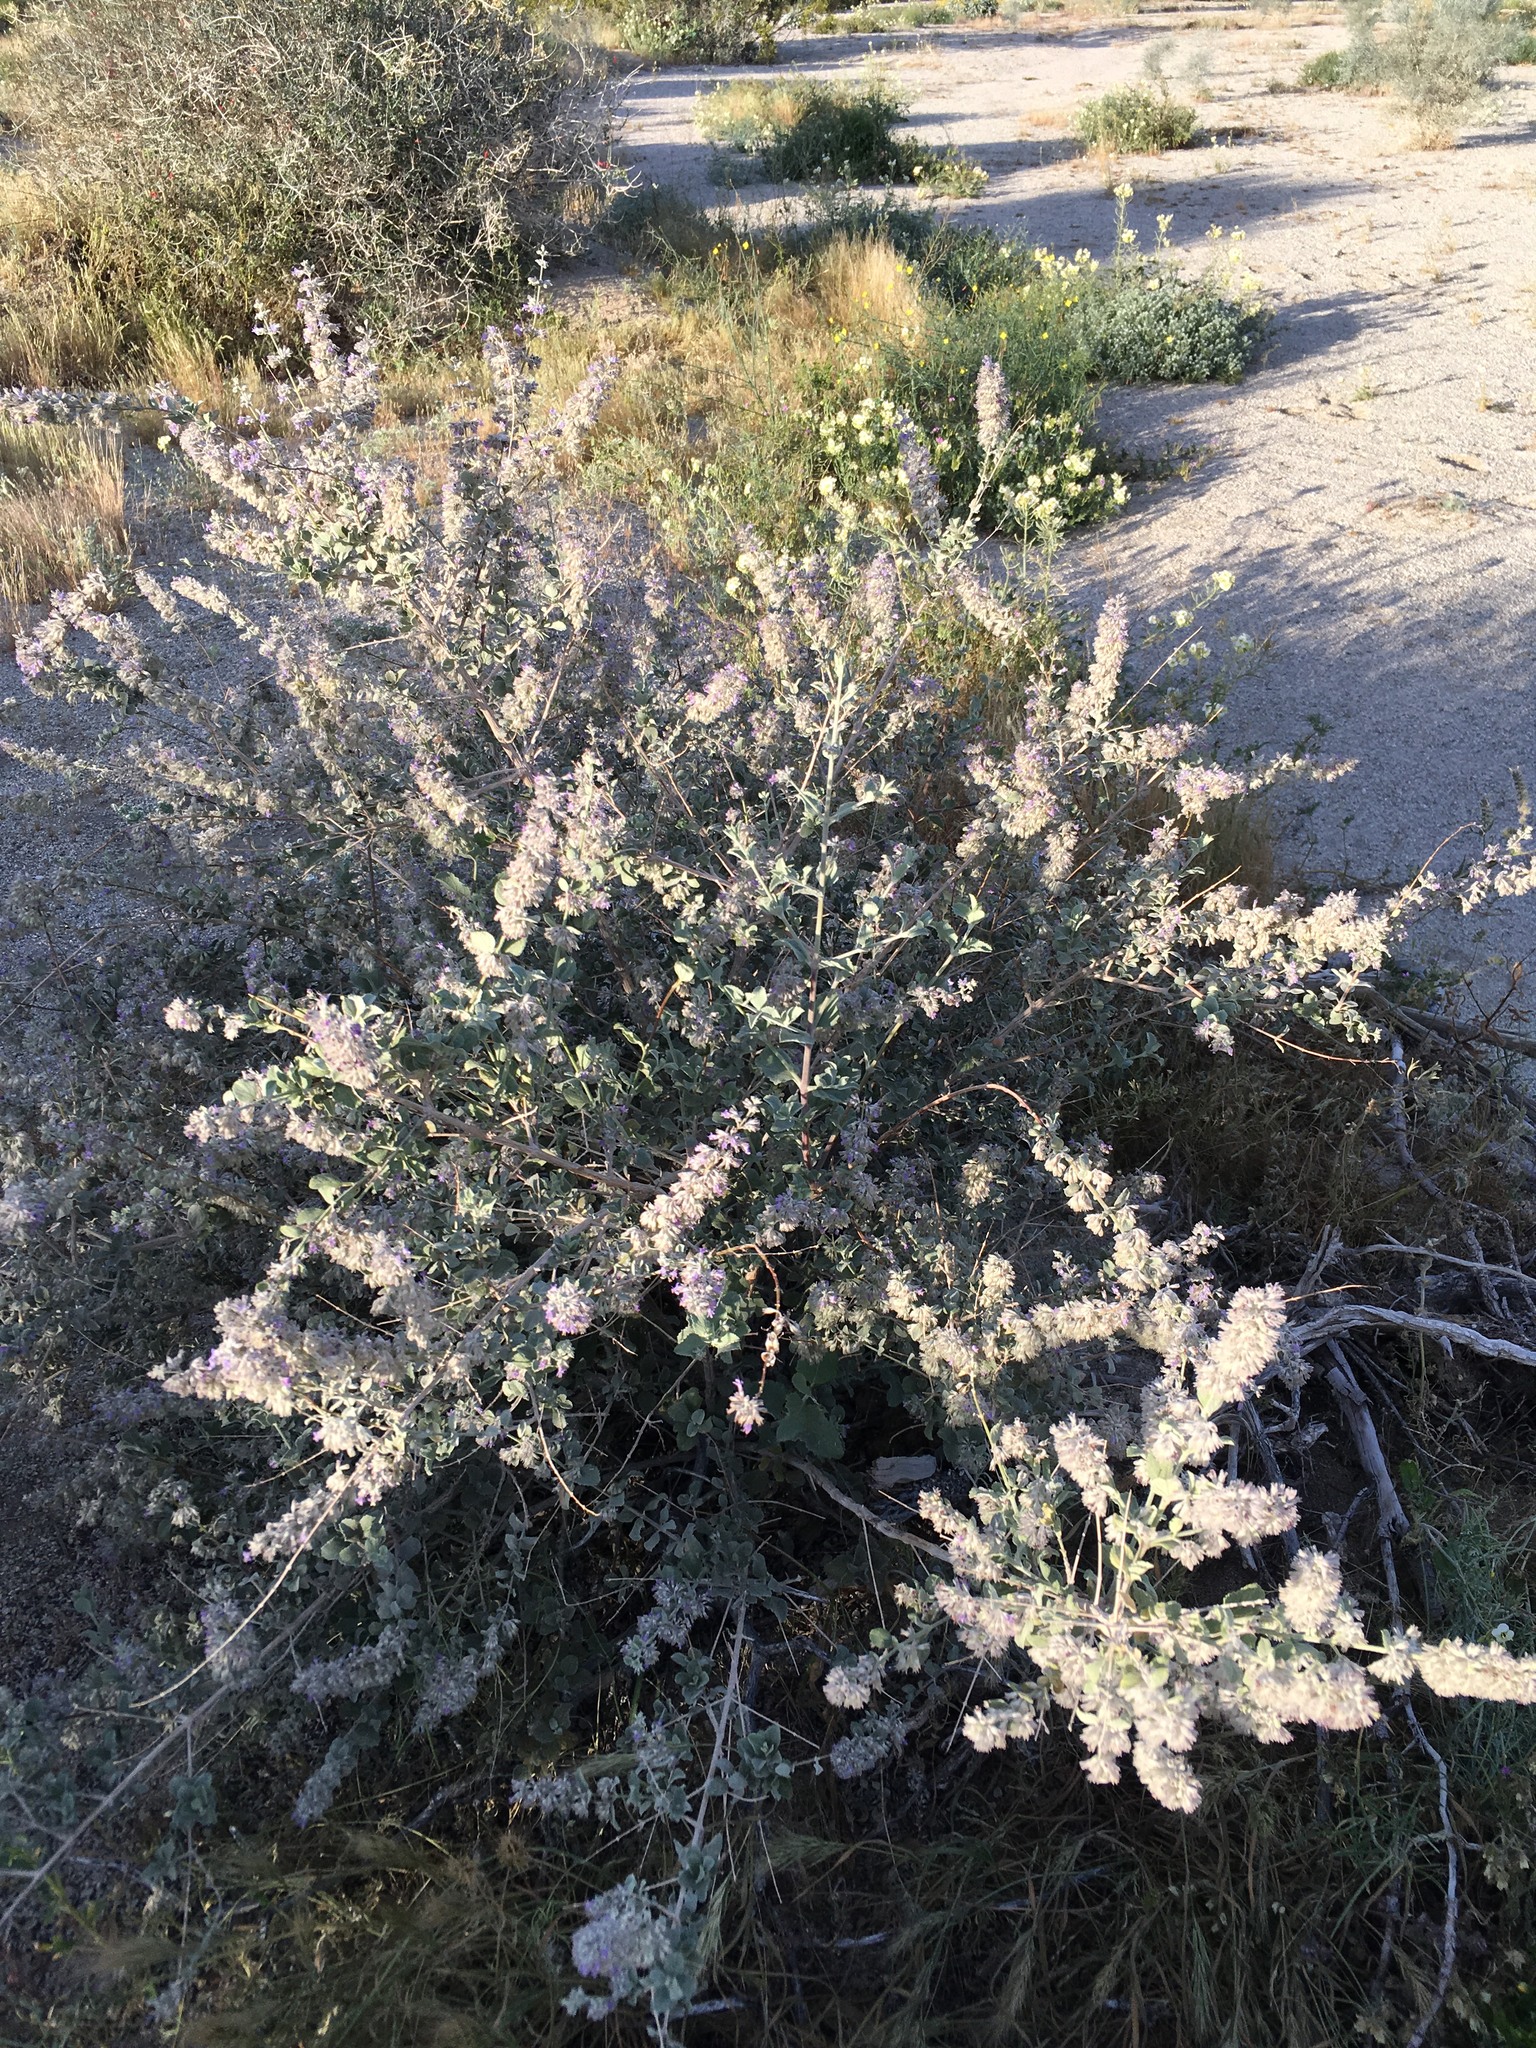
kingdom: Plantae
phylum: Tracheophyta
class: Magnoliopsida
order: Lamiales
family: Lamiaceae
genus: Condea
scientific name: Condea emoryi
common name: Chia
